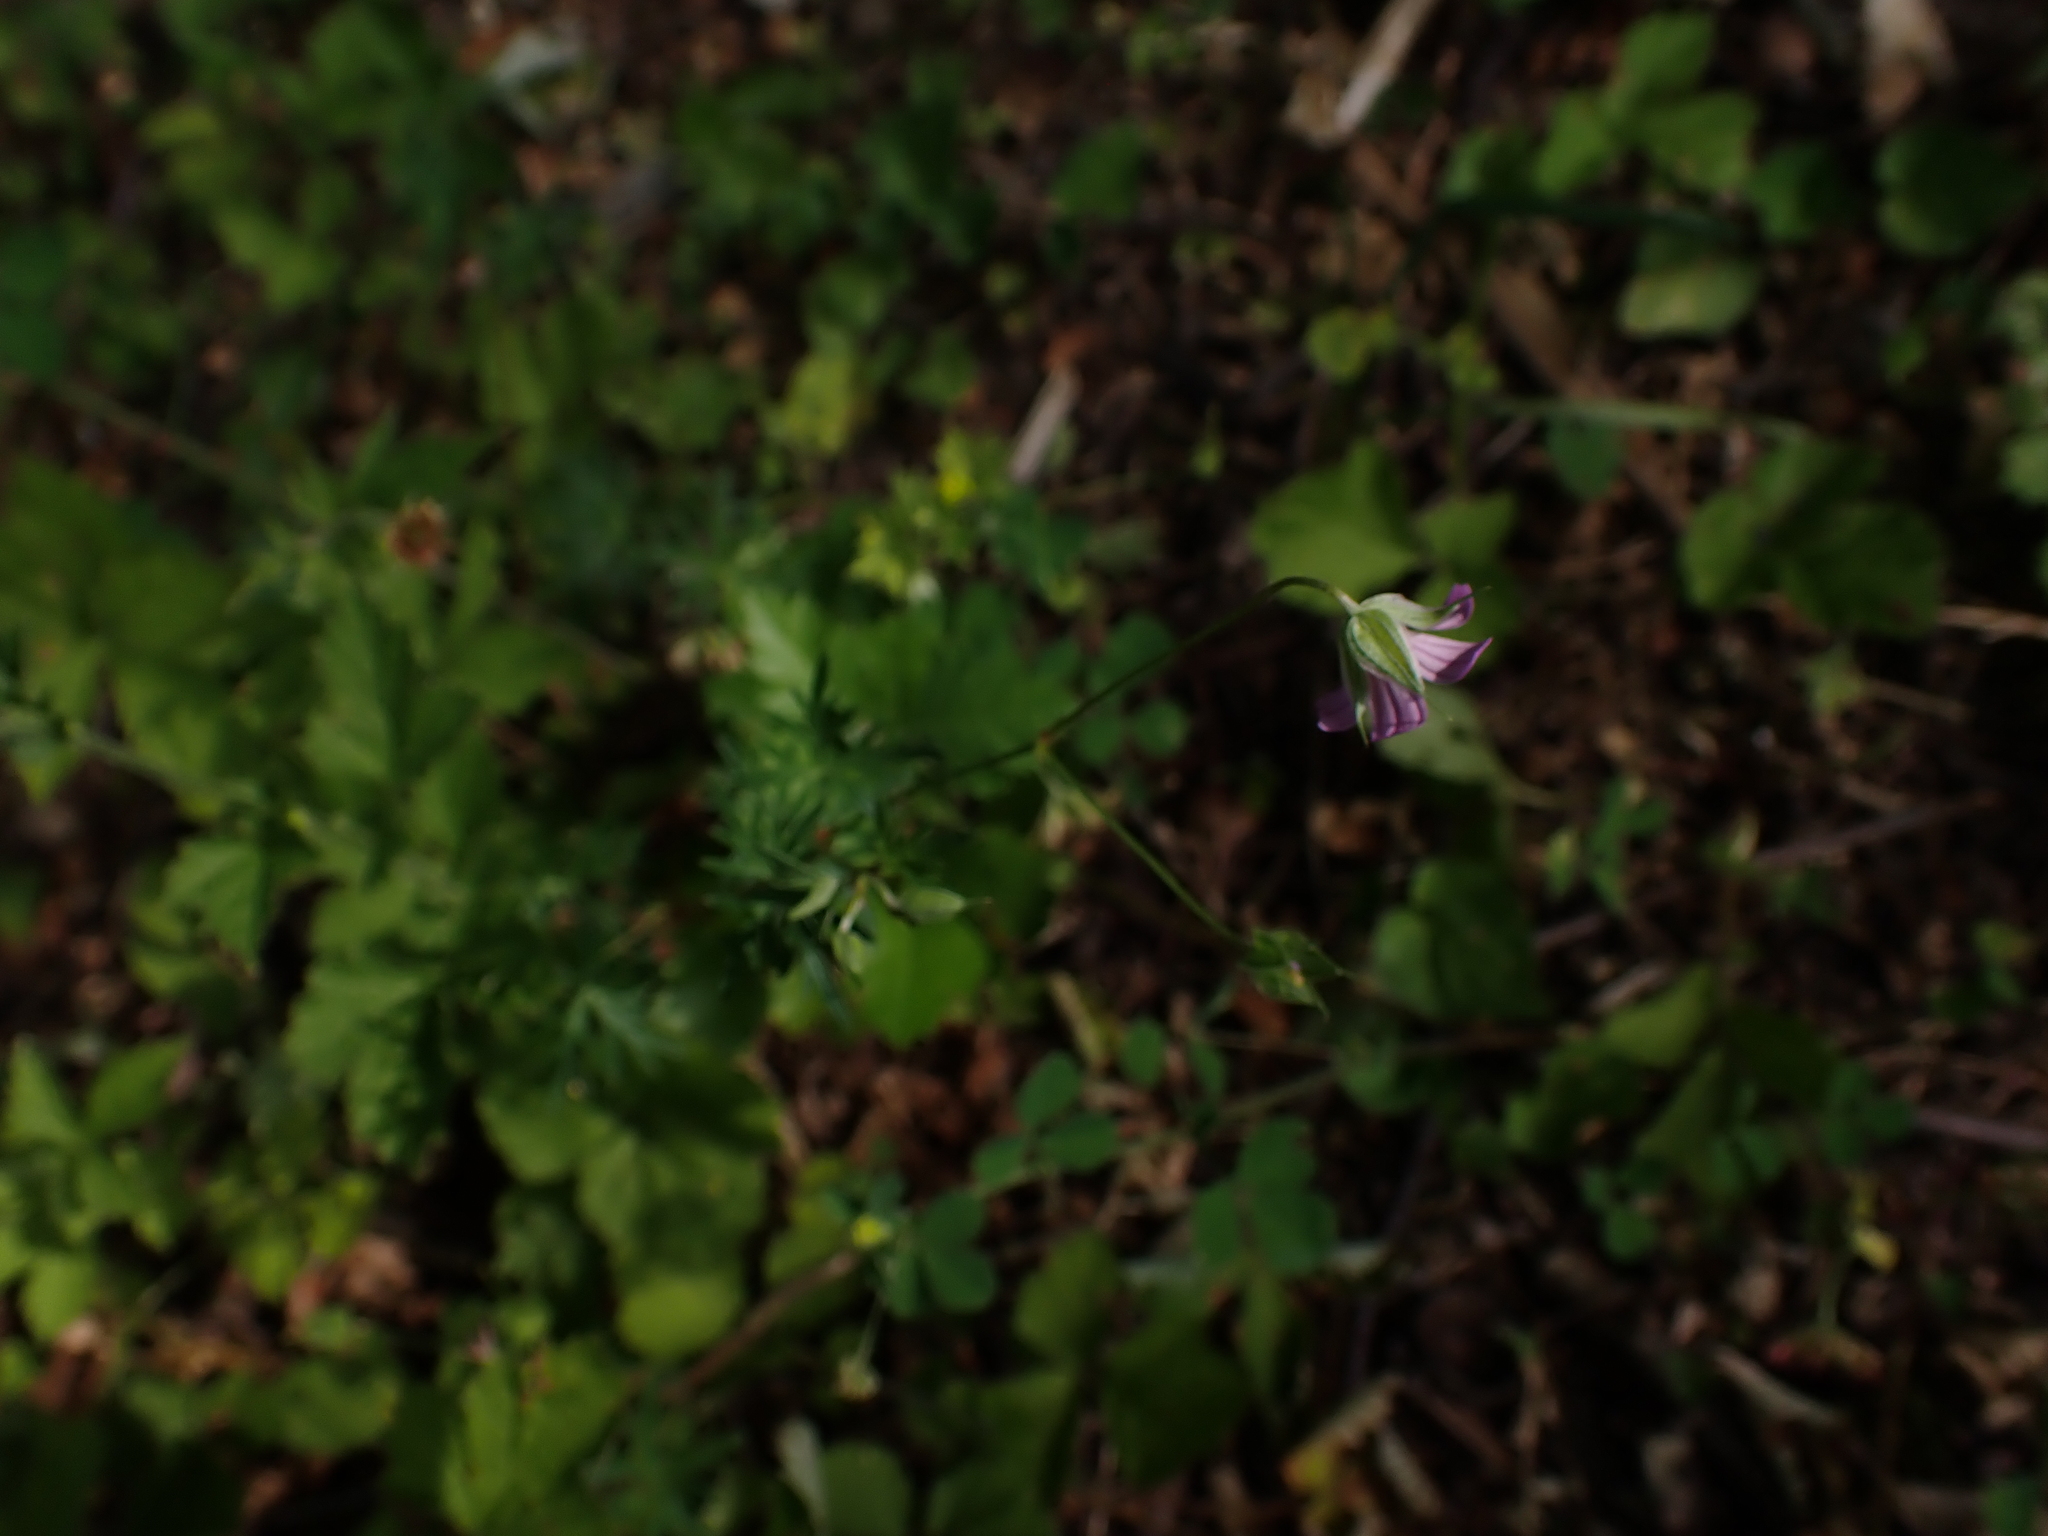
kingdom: Plantae
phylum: Tracheophyta
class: Magnoliopsida
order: Geraniales
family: Geraniaceae
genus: Geranium
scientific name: Geranium columbinum
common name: Long-stalked crane's-bill
